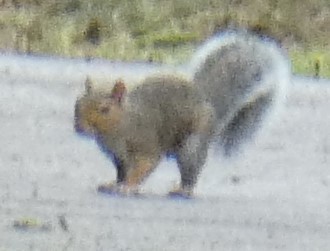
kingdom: Animalia
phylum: Chordata
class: Mammalia
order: Rodentia
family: Sciuridae
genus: Sciurus
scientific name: Sciurus carolinensis
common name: Eastern gray squirrel
